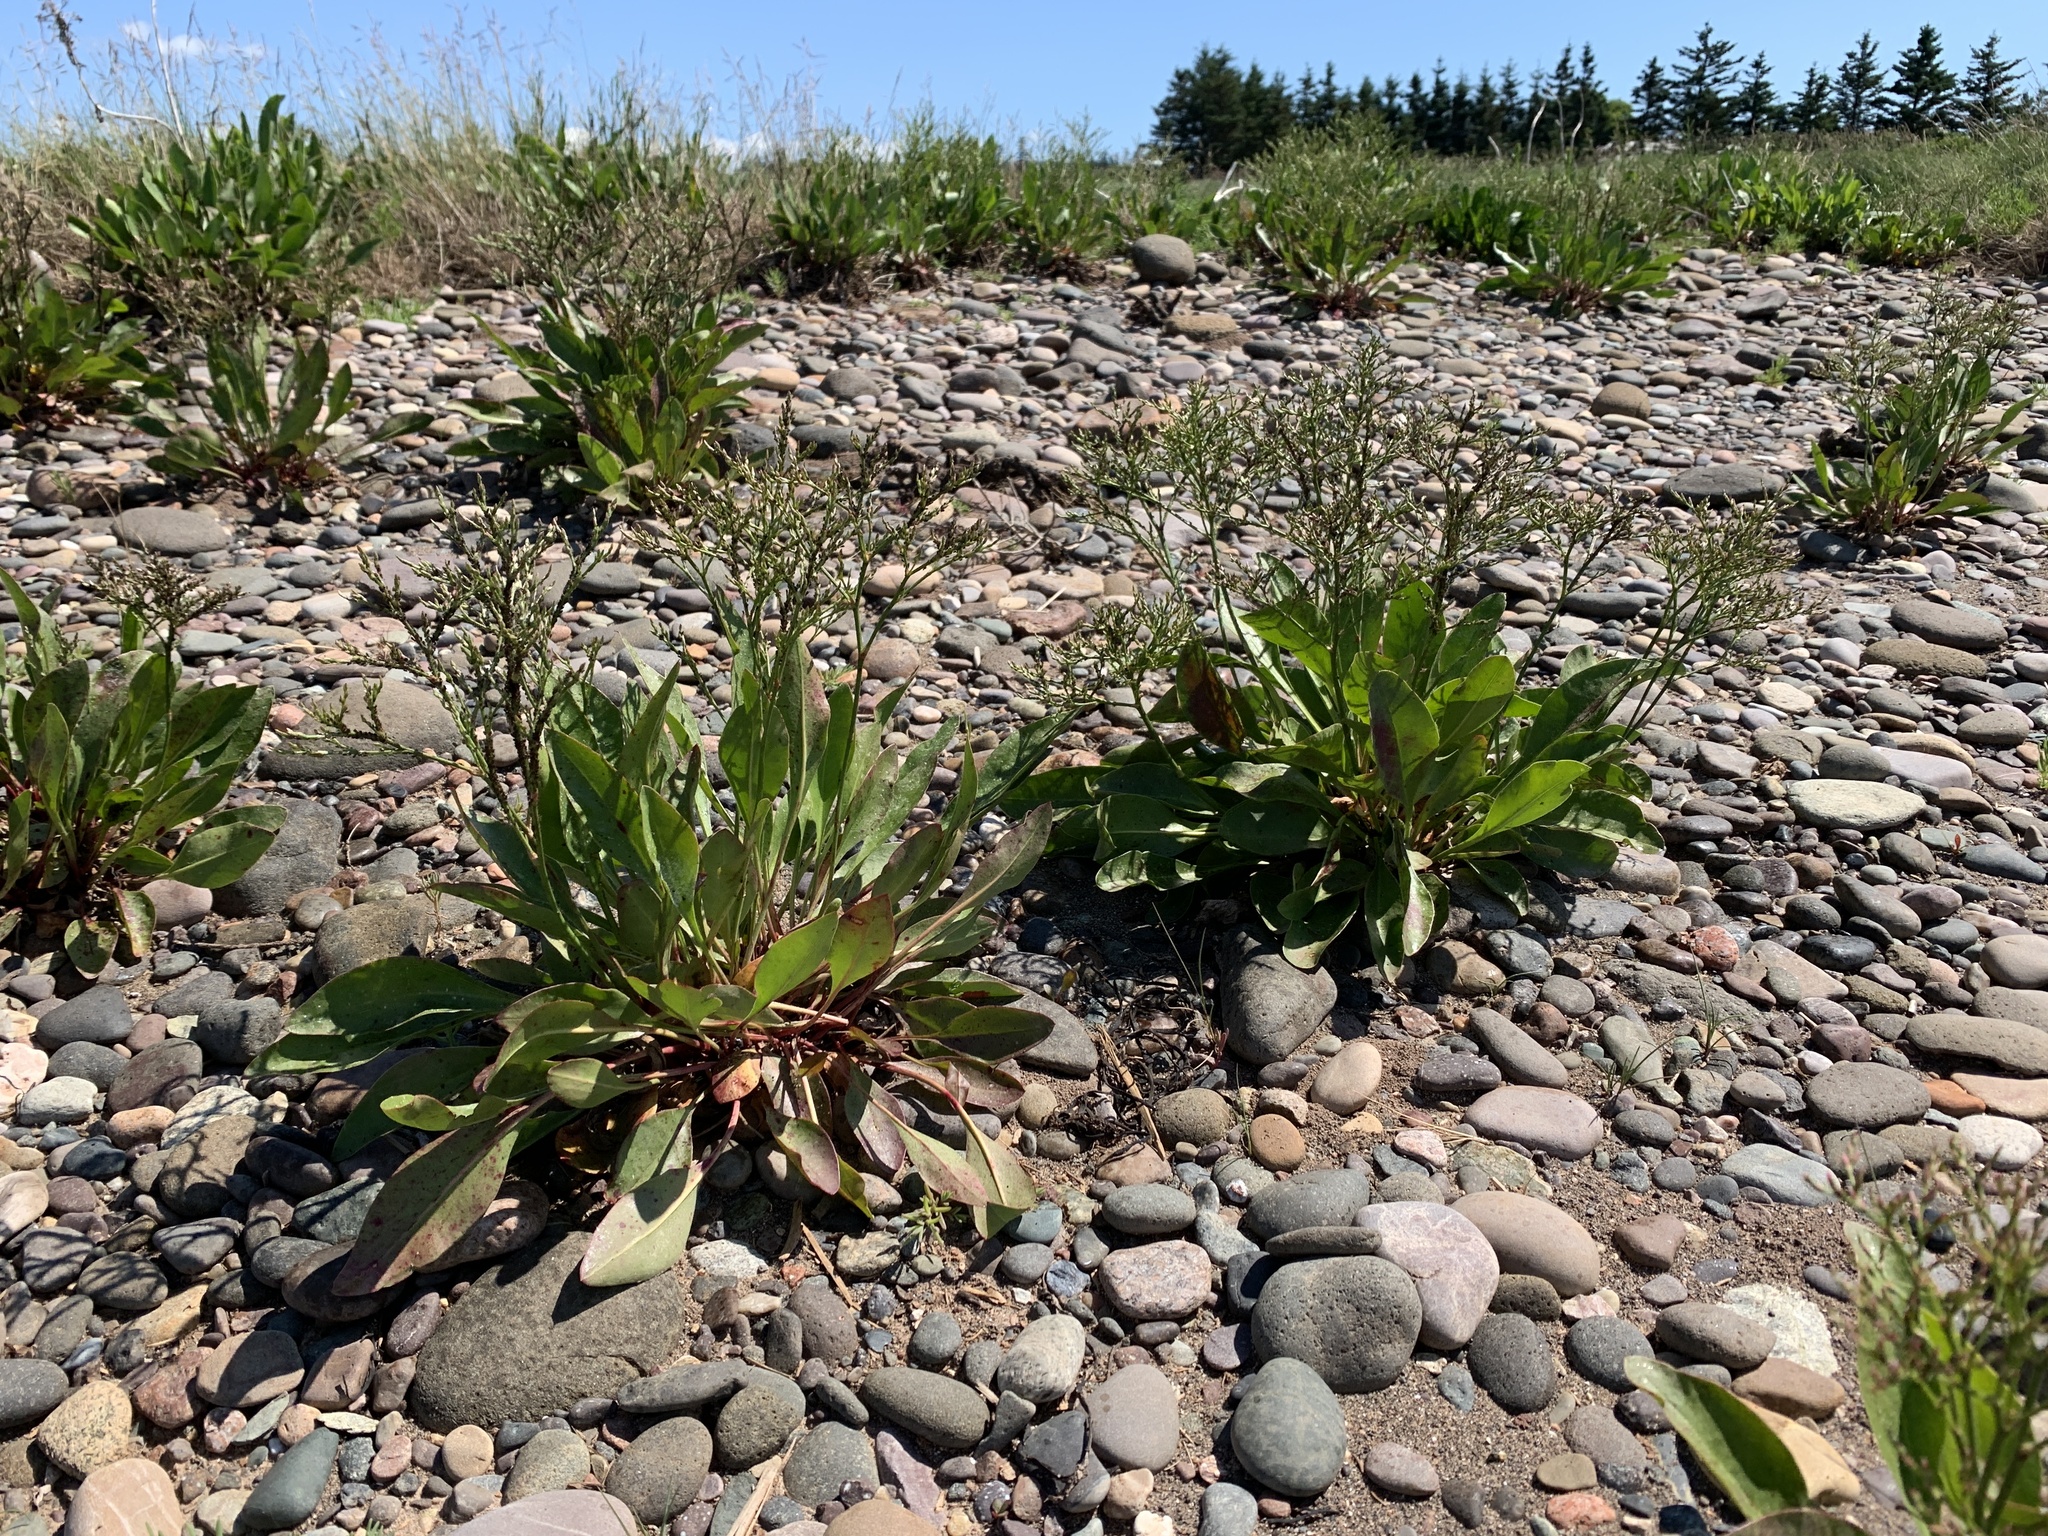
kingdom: Plantae
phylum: Tracheophyta
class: Magnoliopsida
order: Caryophyllales
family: Plumbaginaceae
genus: Limonium
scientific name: Limonium carolinianum
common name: Carolina sea lavender
